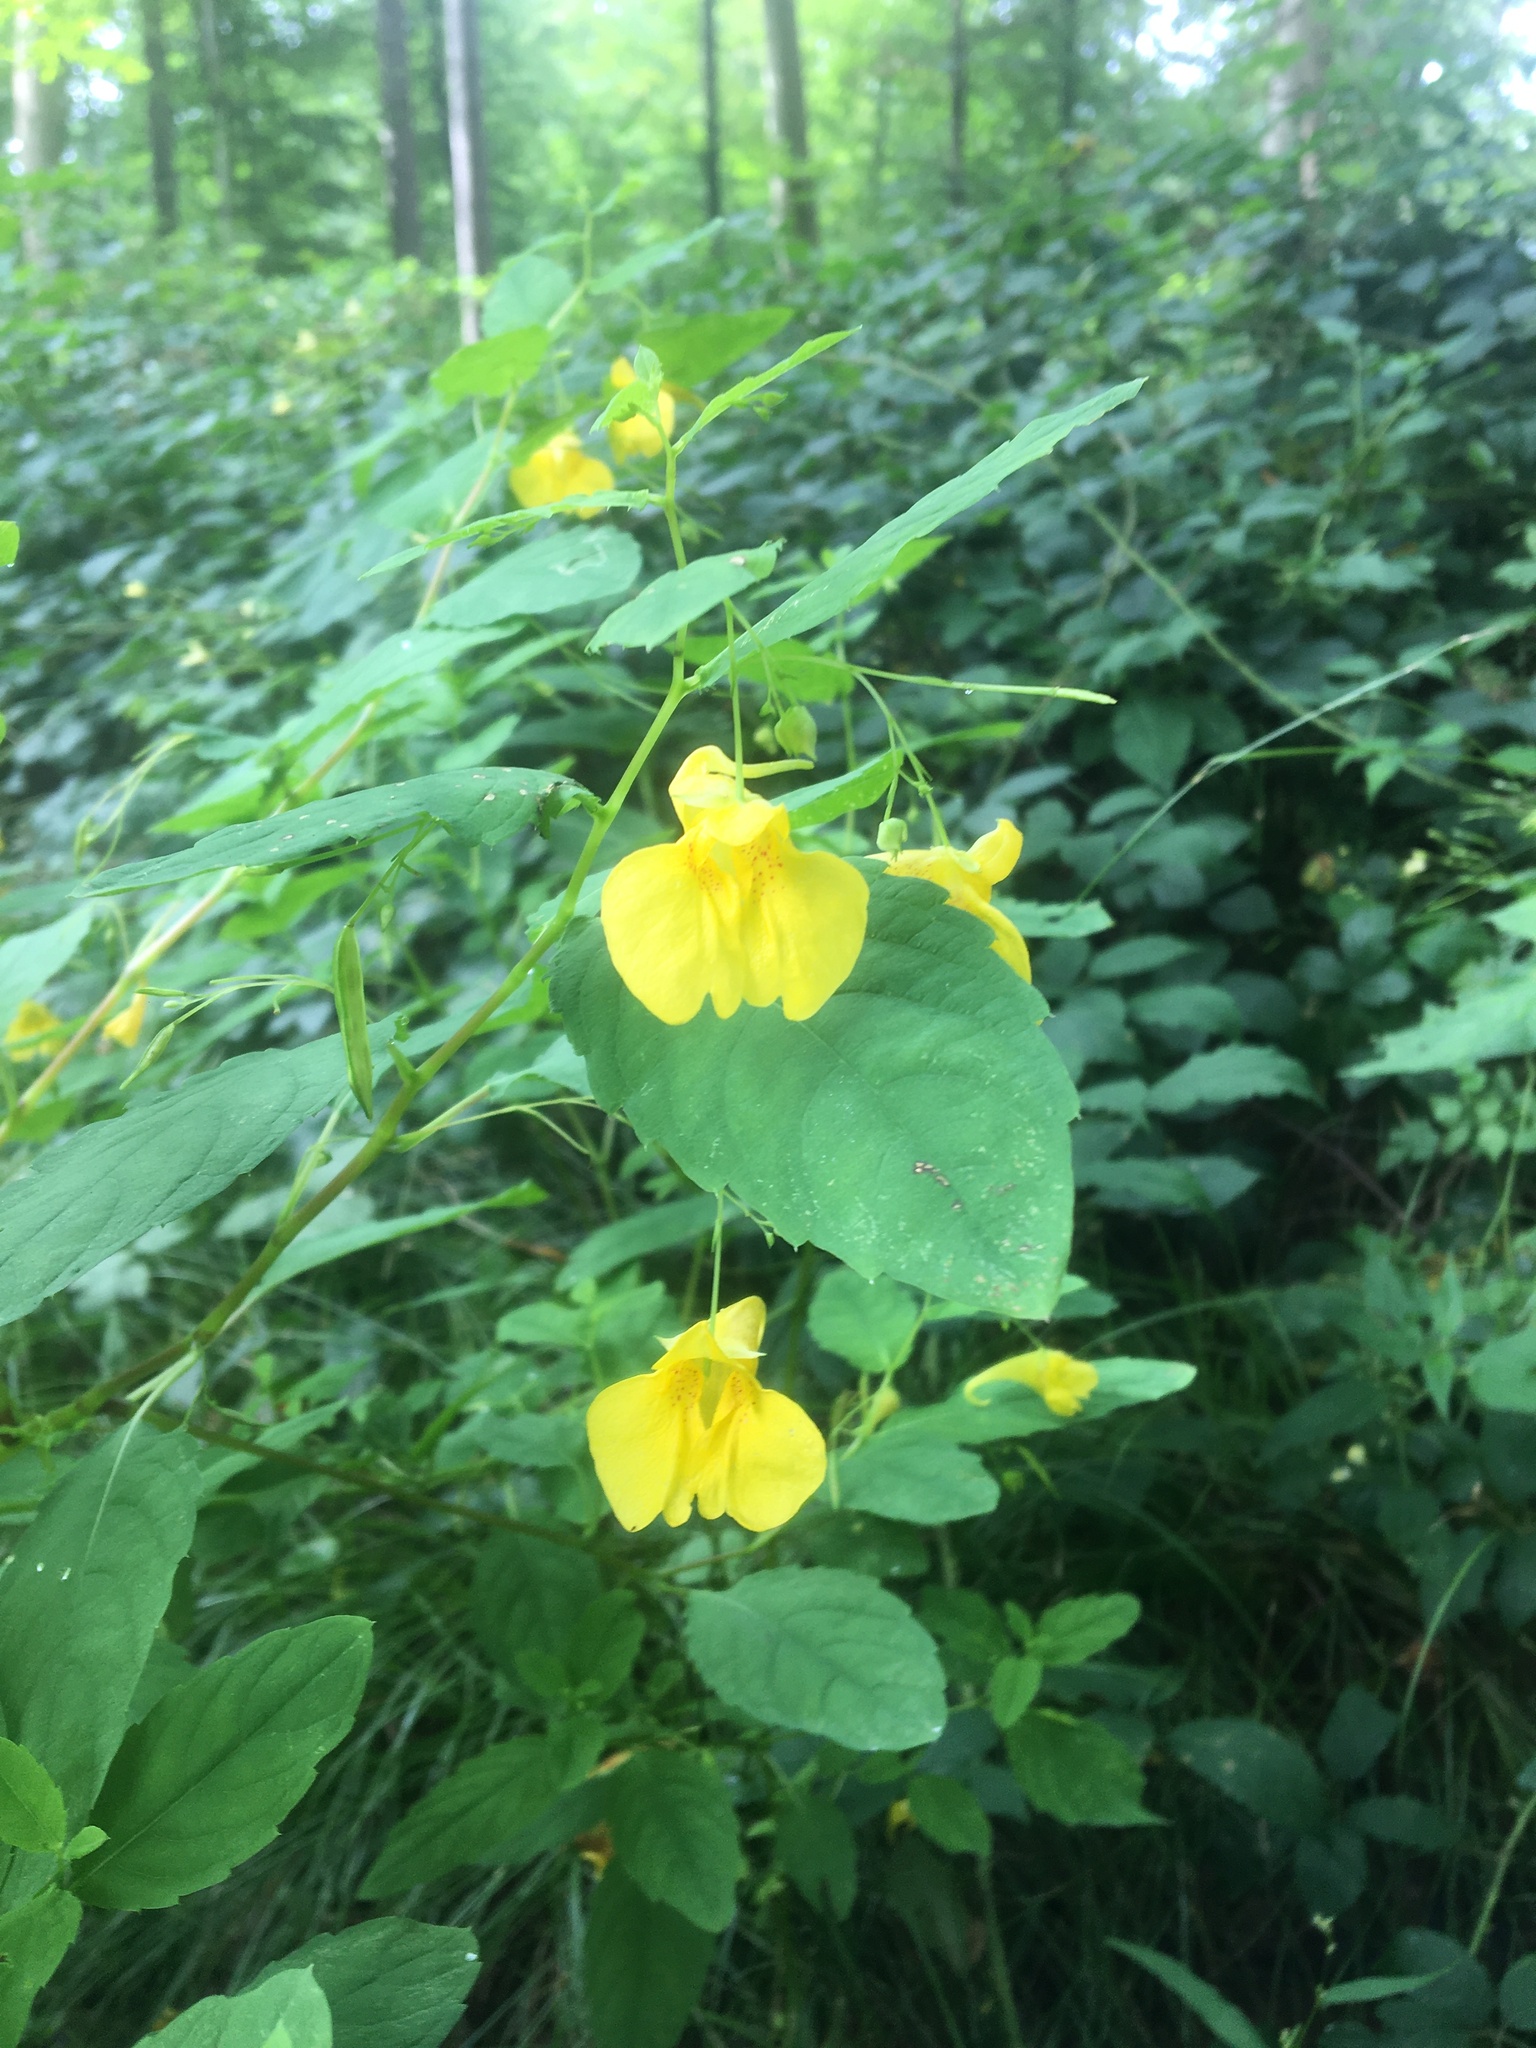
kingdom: Plantae
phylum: Tracheophyta
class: Magnoliopsida
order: Ericales
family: Balsaminaceae
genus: Impatiens
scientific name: Impatiens noli-tangere
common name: Touch-me-not balsam
